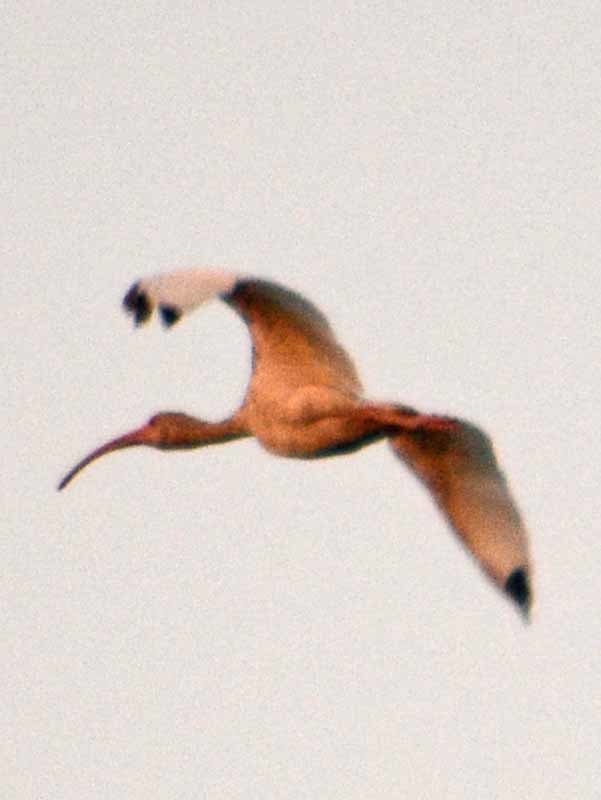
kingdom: Animalia
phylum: Chordata
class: Aves
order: Pelecaniformes
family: Threskiornithidae
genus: Eudocimus
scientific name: Eudocimus albus
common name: White ibis
